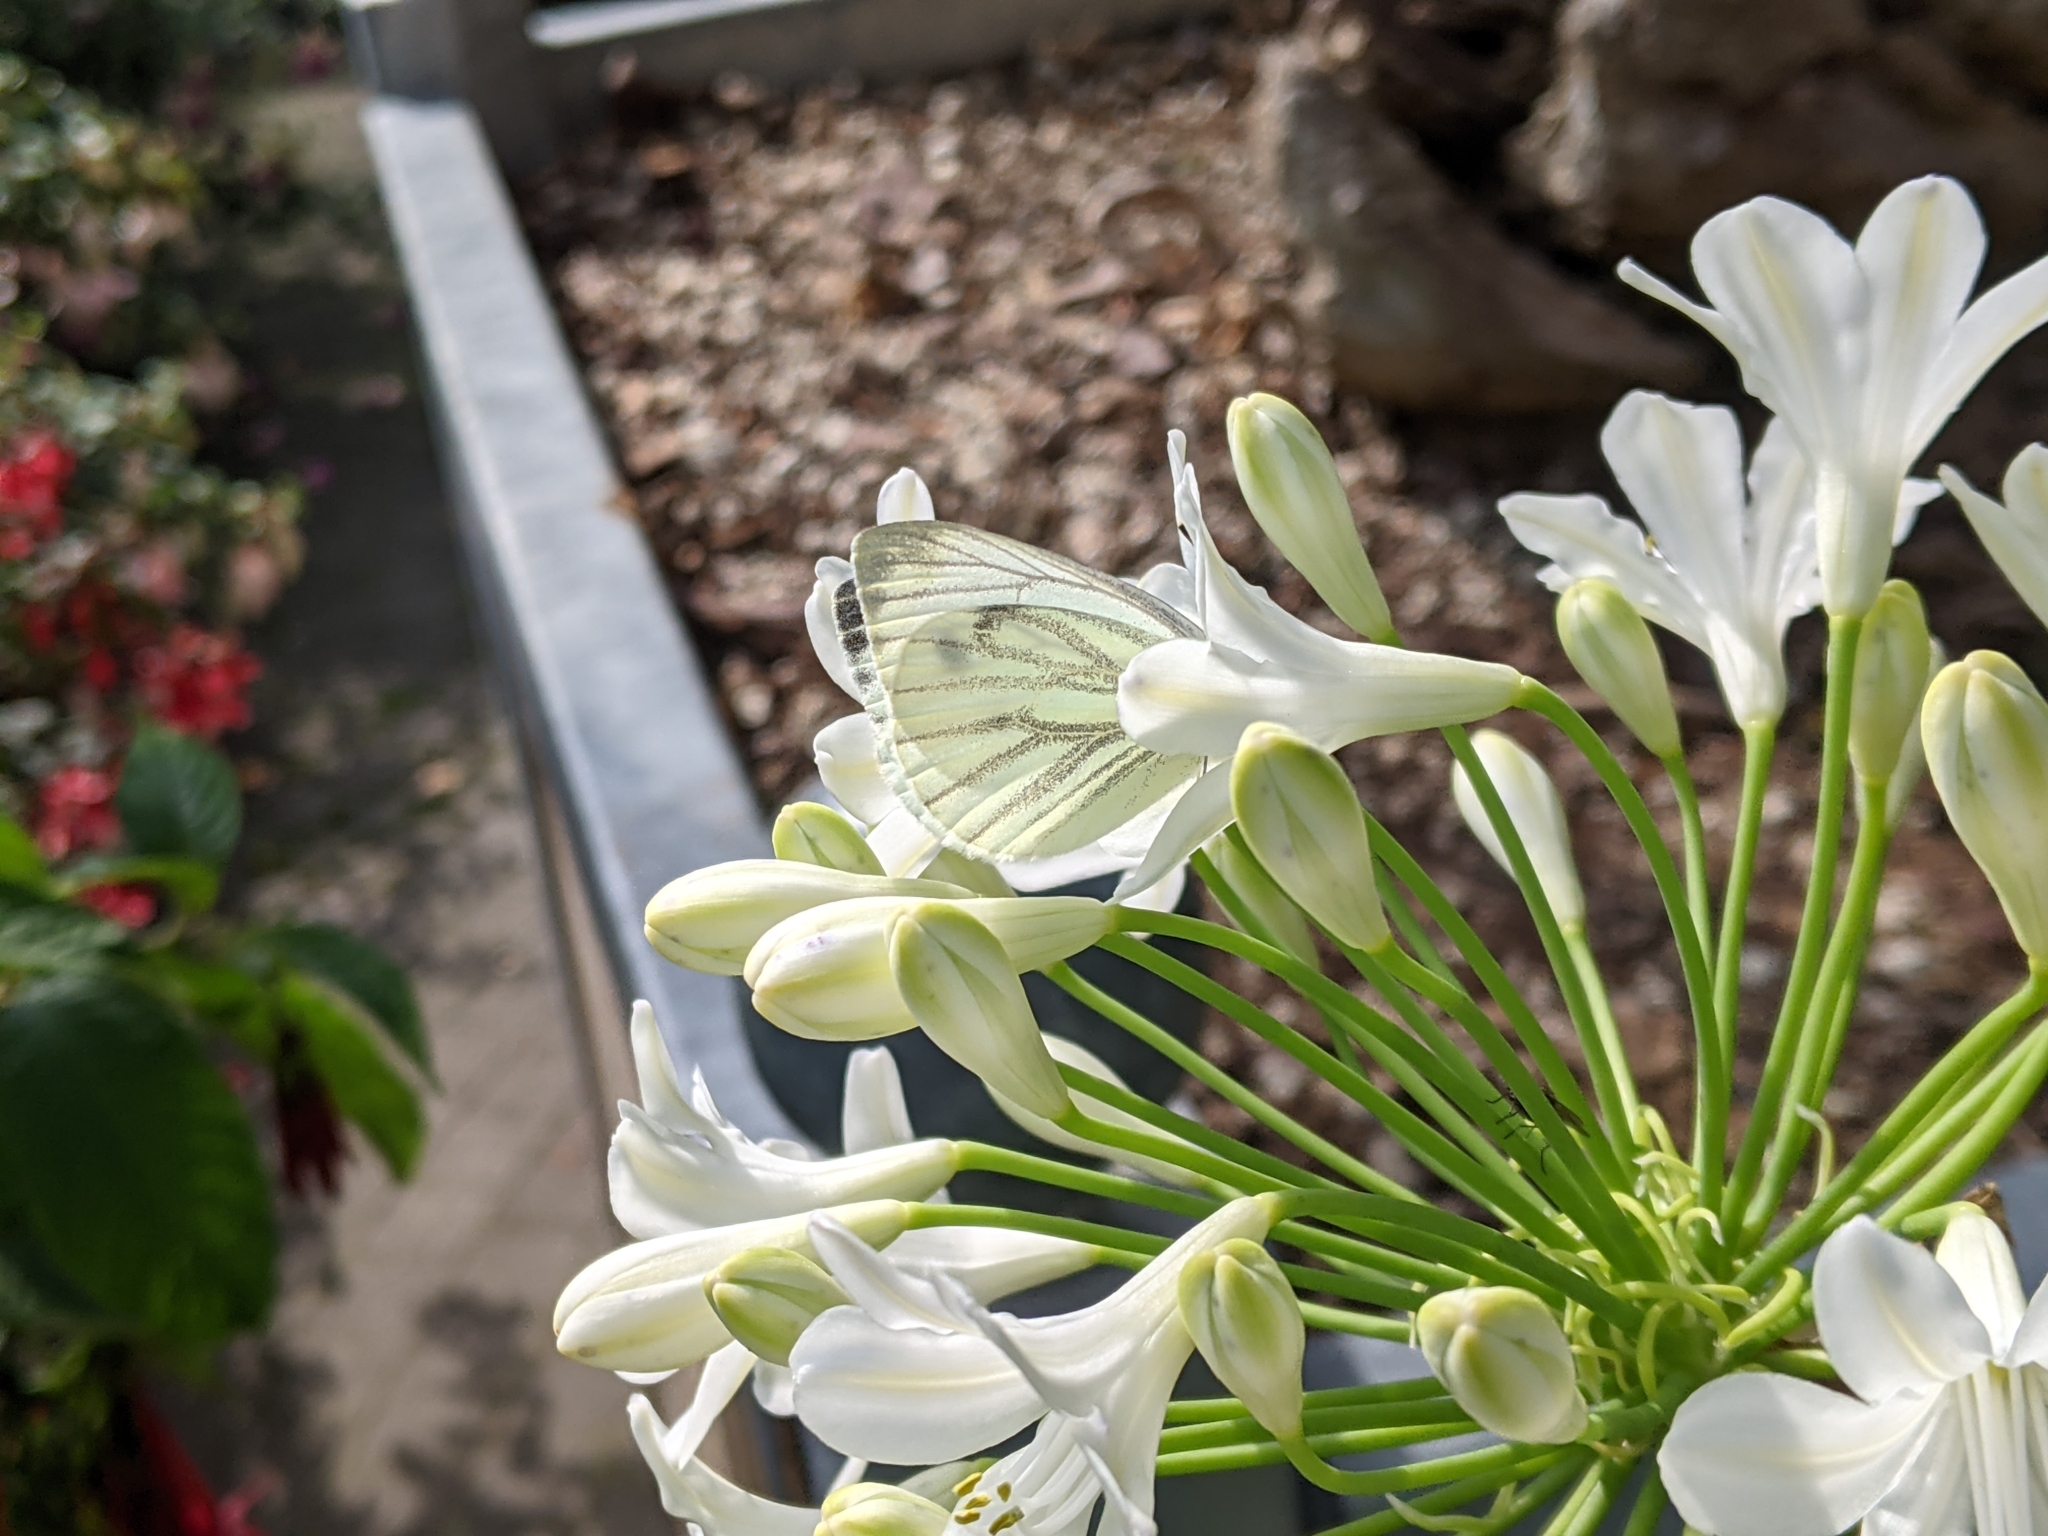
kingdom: Animalia
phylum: Arthropoda
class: Insecta
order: Lepidoptera
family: Pieridae
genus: Pieris
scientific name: Pieris napi
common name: Green-veined white
